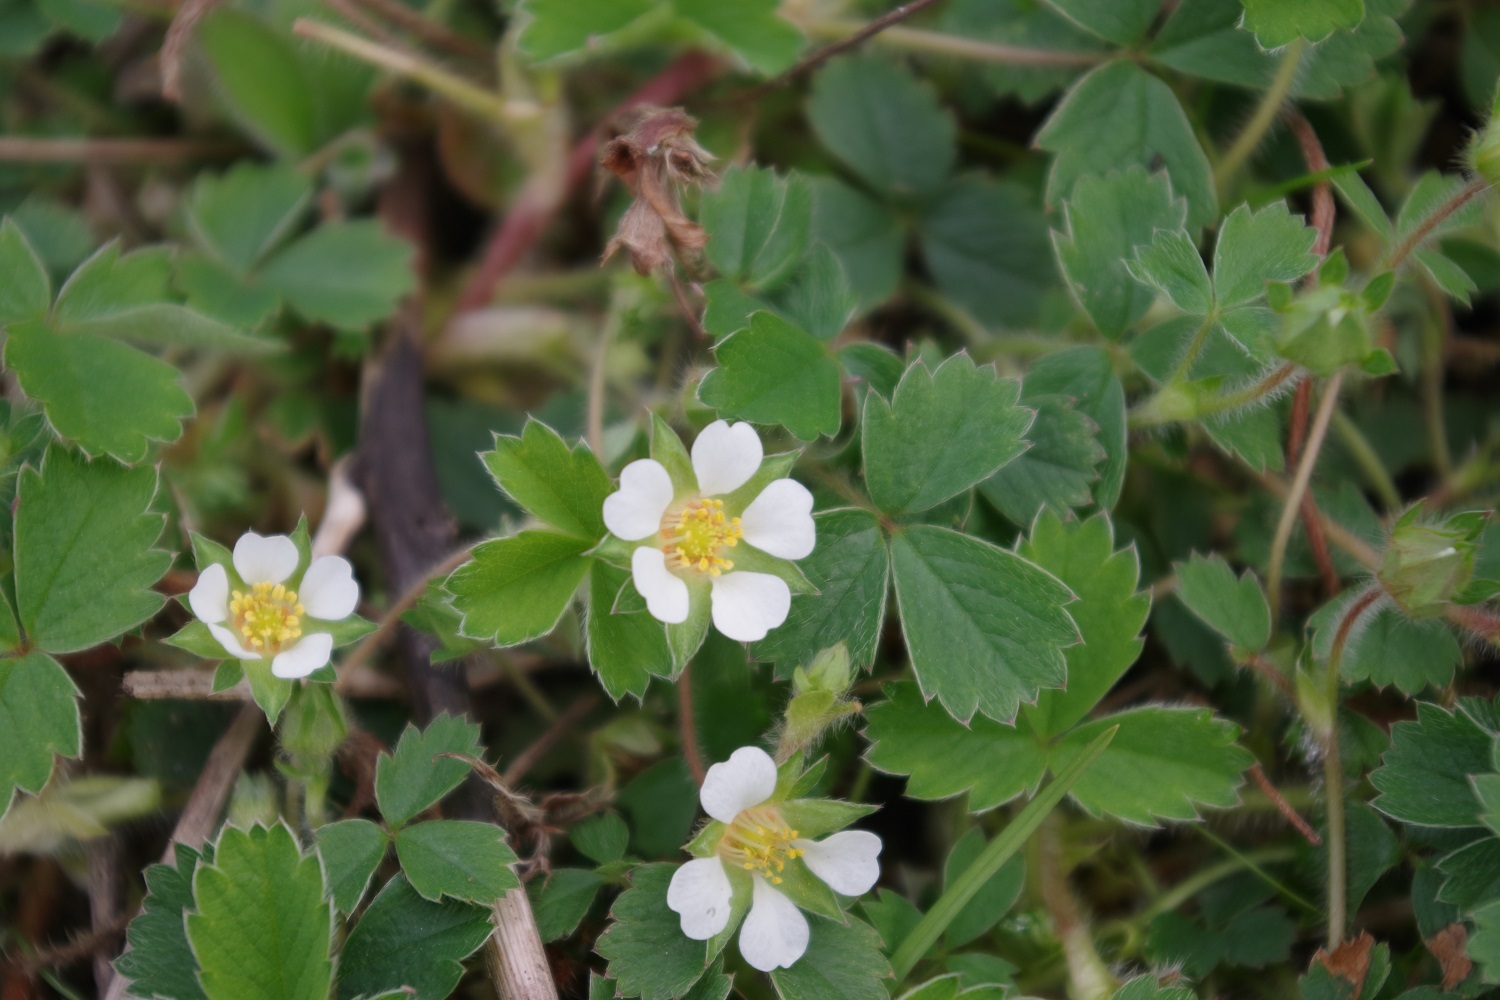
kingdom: Plantae
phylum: Tracheophyta
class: Magnoliopsida
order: Rosales
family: Rosaceae
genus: Potentilla
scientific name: Potentilla sterilis
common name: Barren strawberry
